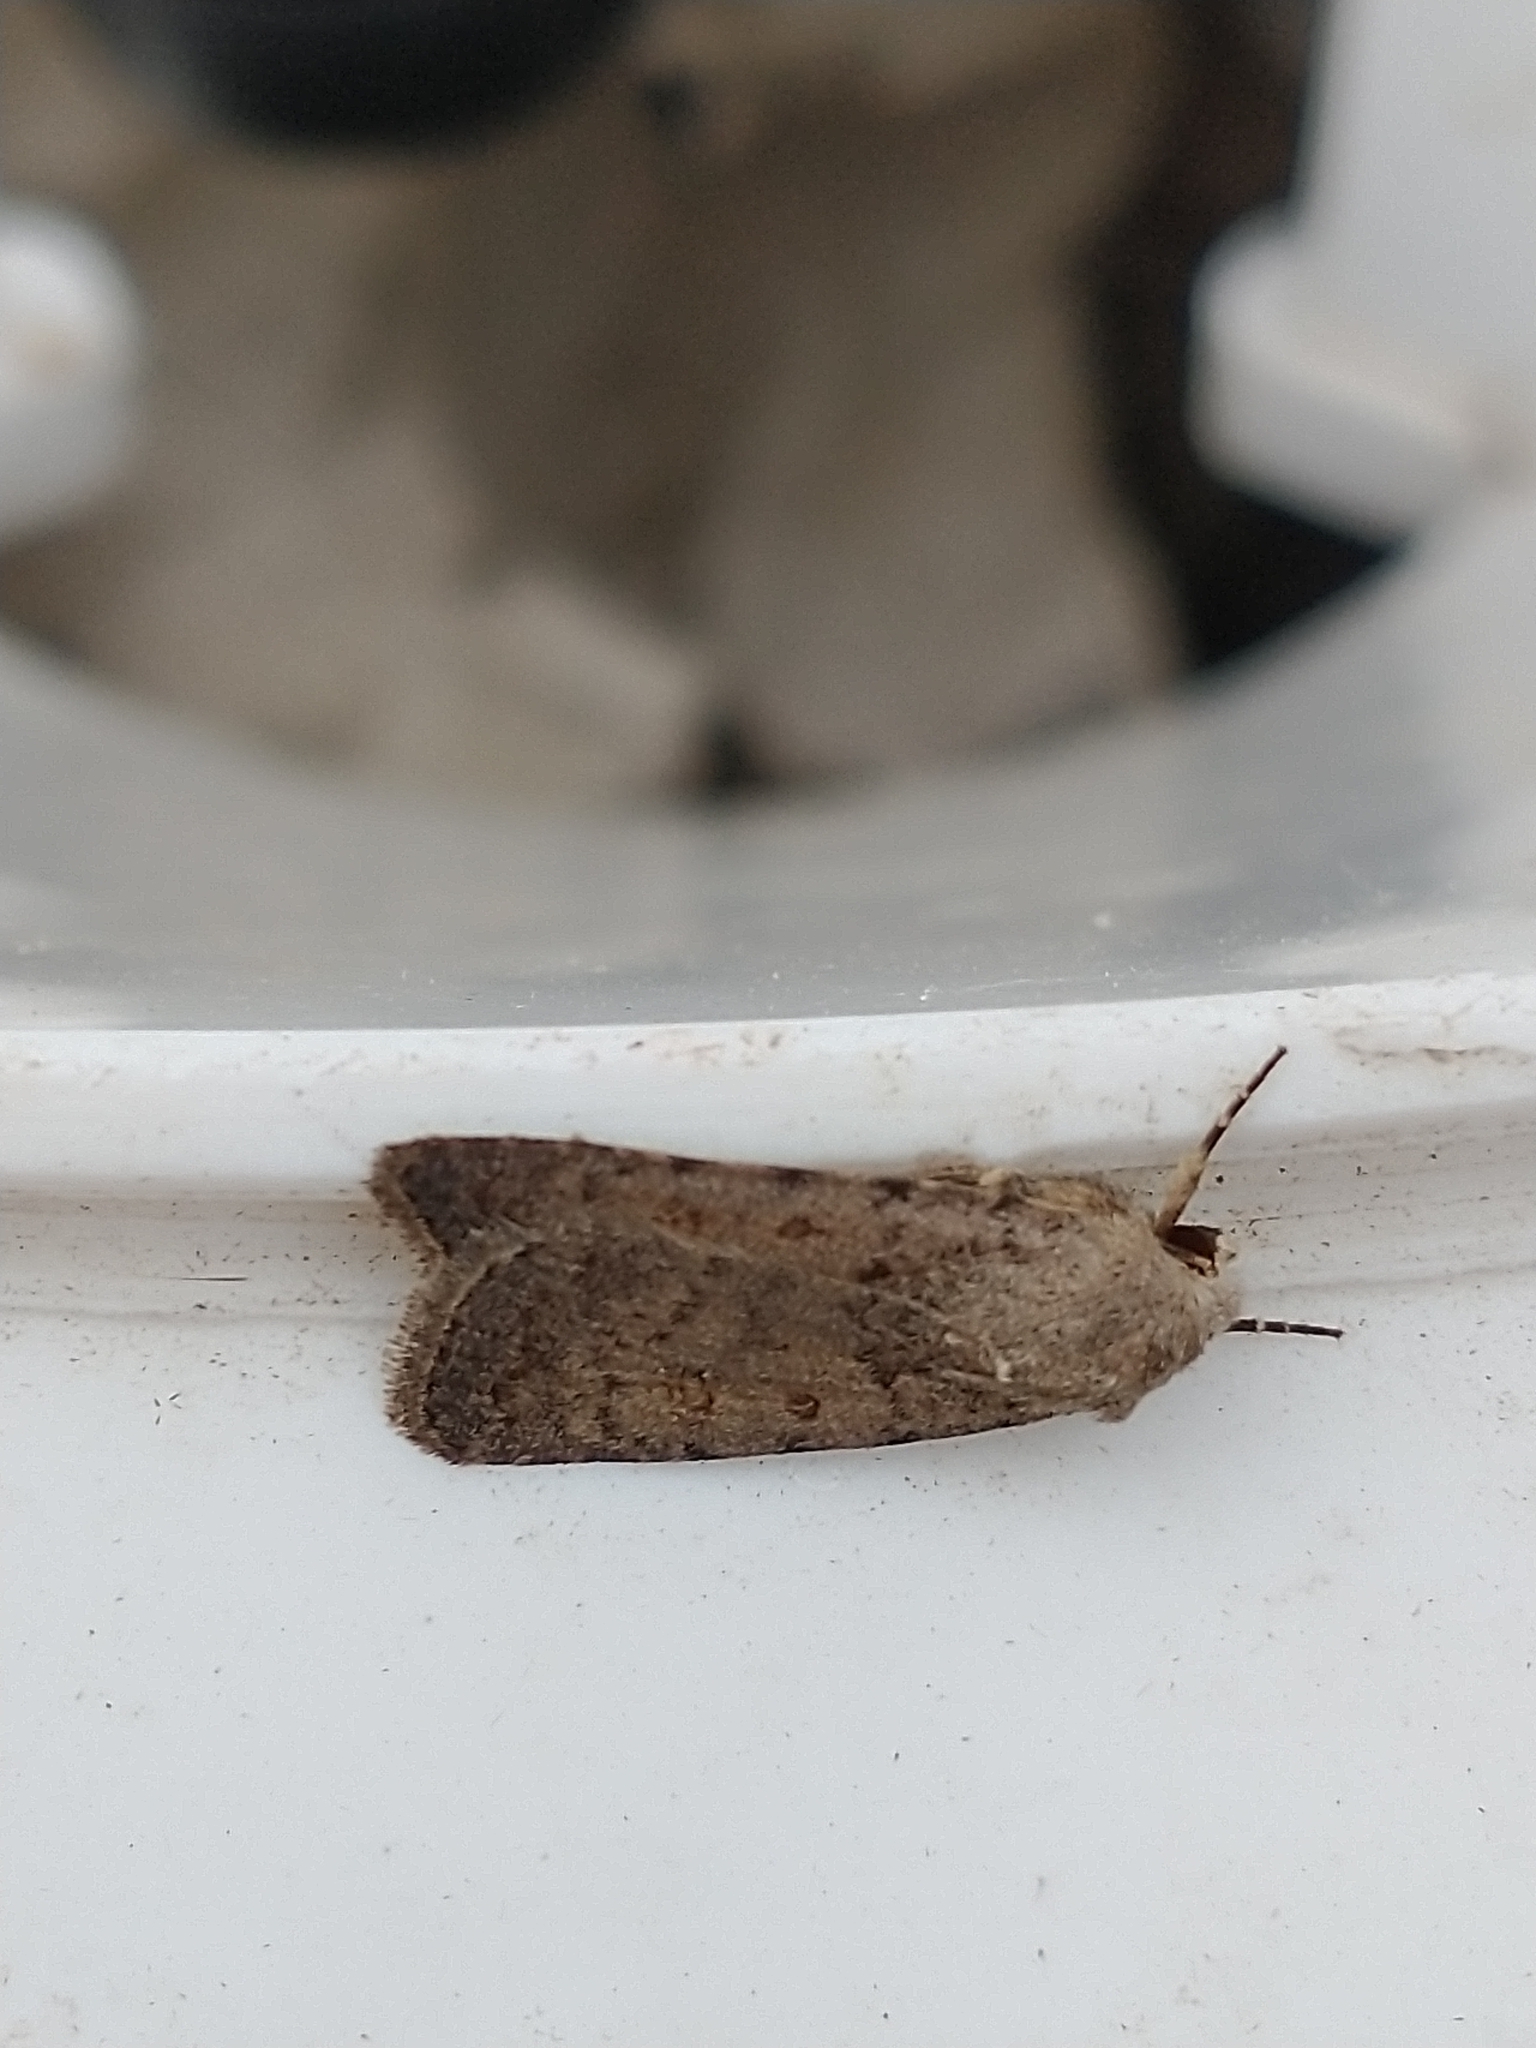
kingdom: Animalia
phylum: Arthropoda
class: Insecta
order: Lepidoptera
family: Noctuidae
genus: Caradrina
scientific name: Caradrina clavipalpis
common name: Pale mottled willow
